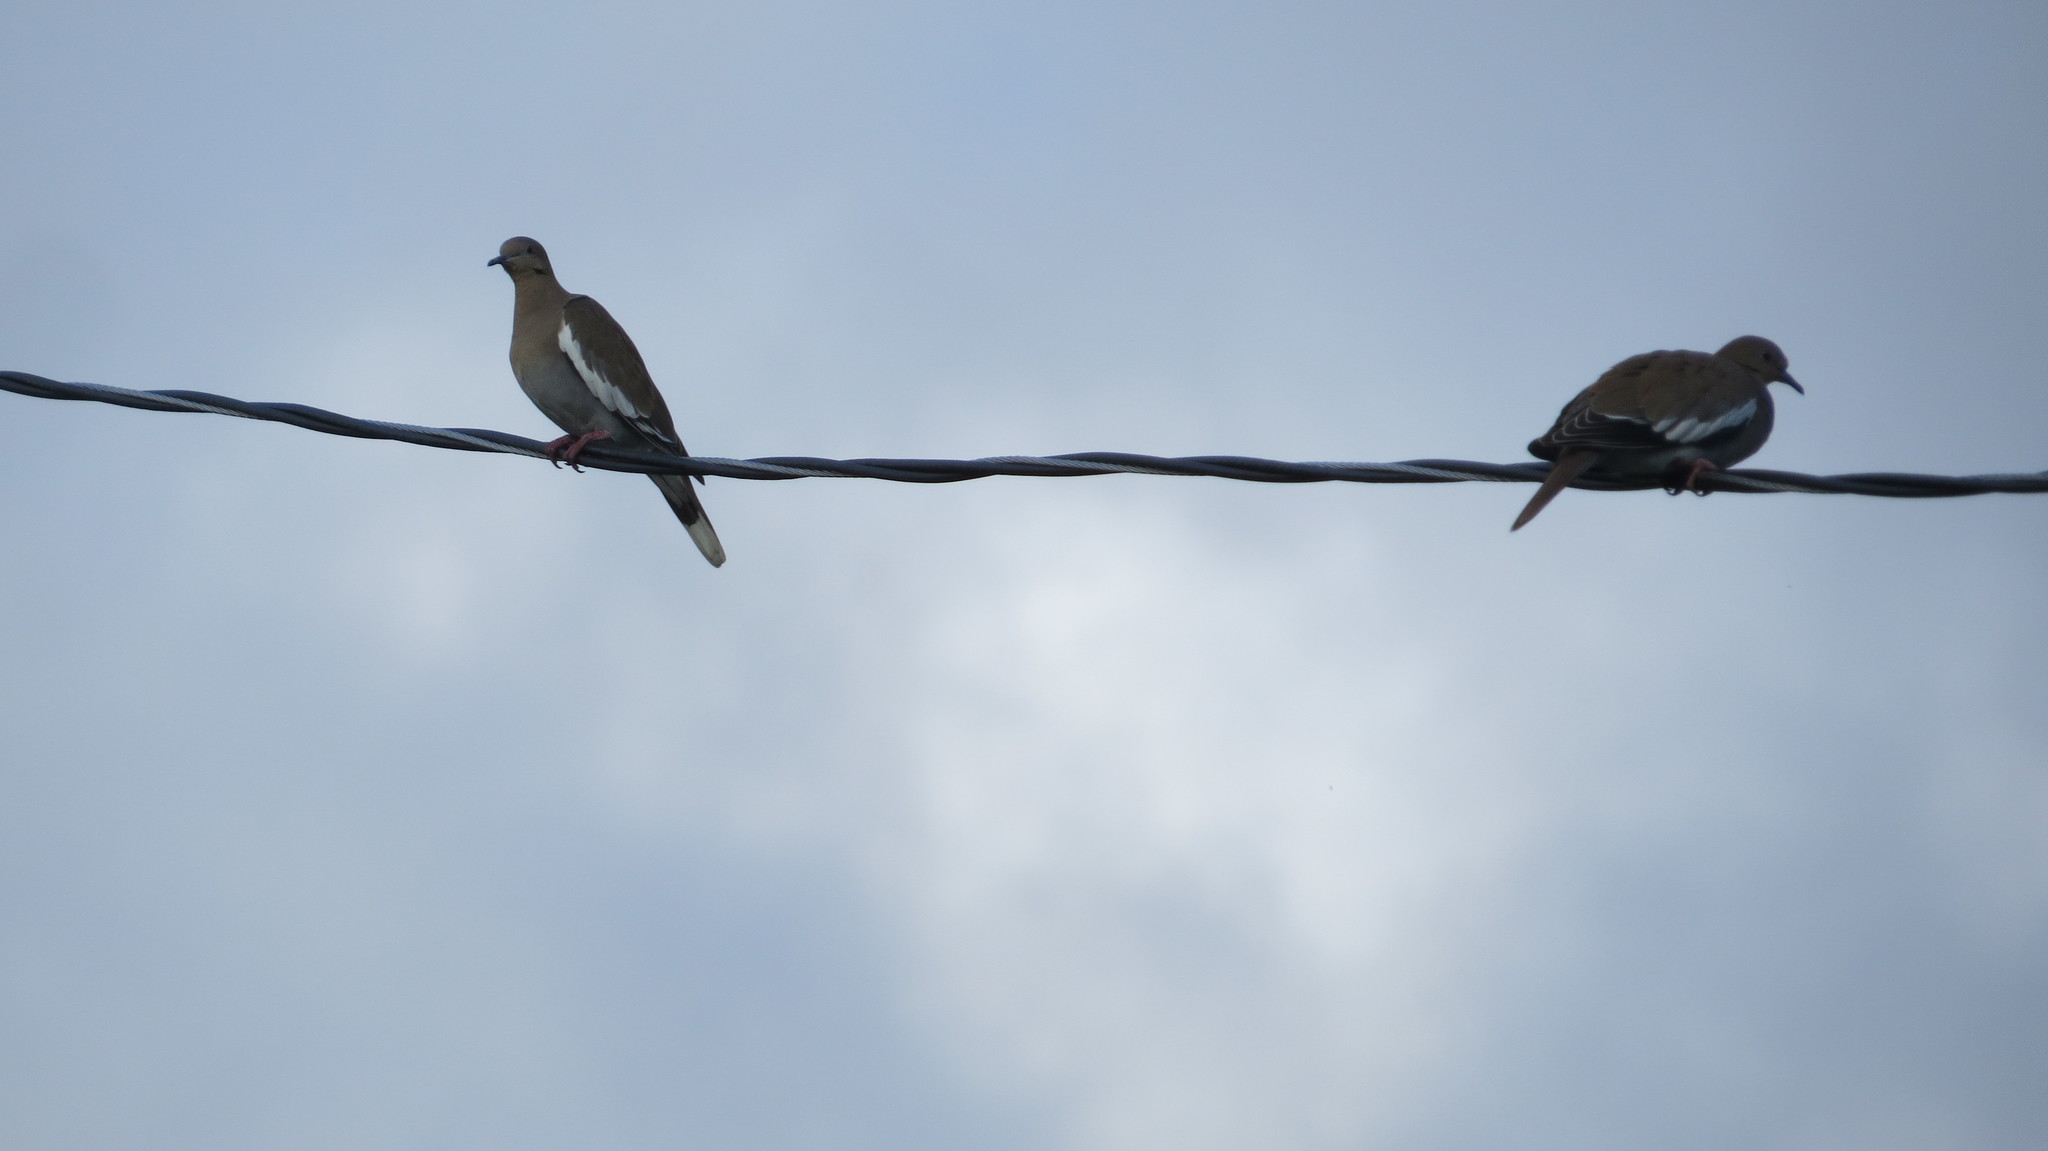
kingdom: Animalia
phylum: Chordata
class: Aves
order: Columbiformes
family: Columbidae
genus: Zenaida
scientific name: Zenaida asiatica
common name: White-winged dove
